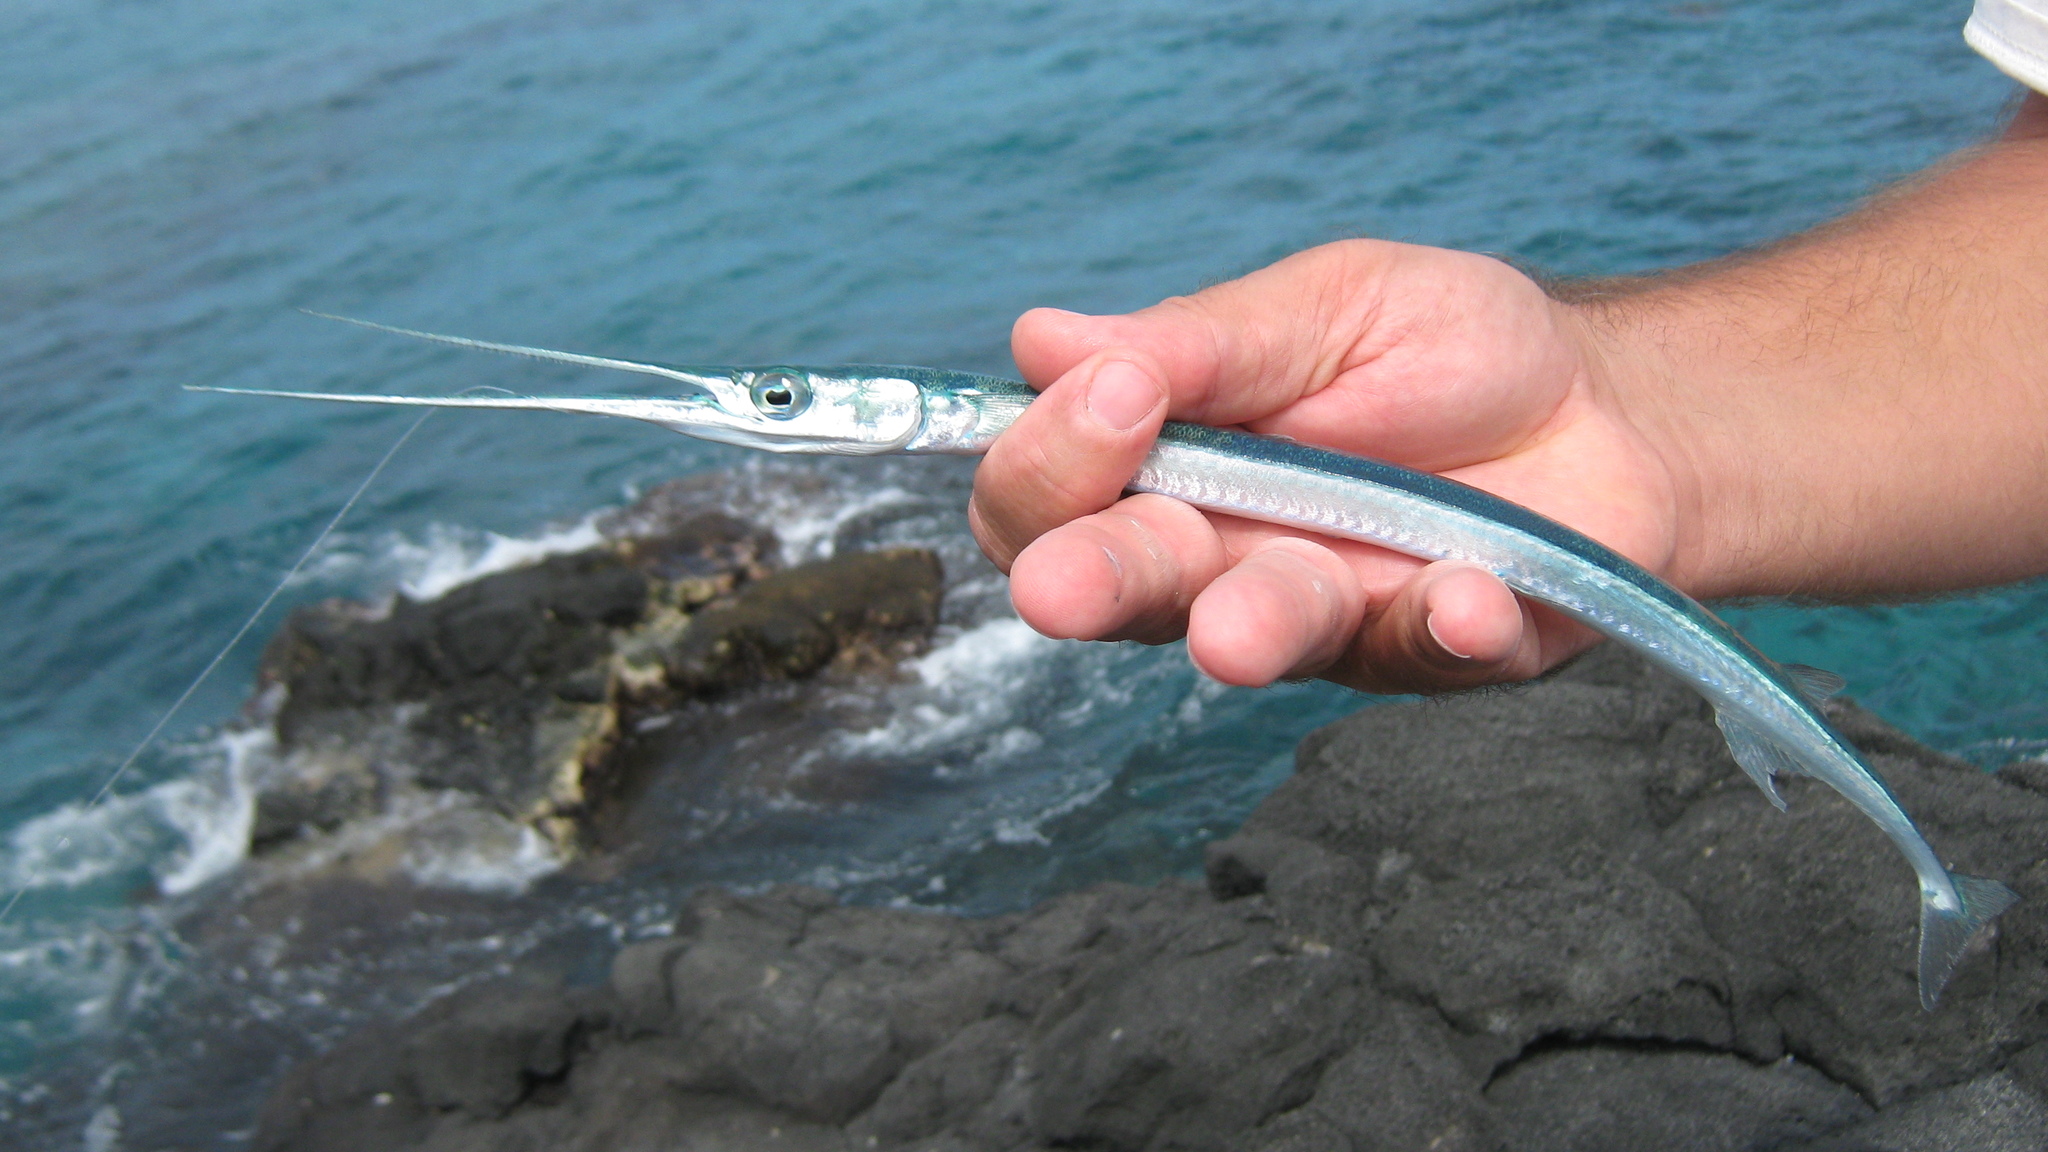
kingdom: Animalia
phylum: Chordata
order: Beloniformes
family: Belonidae
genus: Platybelone
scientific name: Platybelone argalus
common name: Keeltail needlefish
